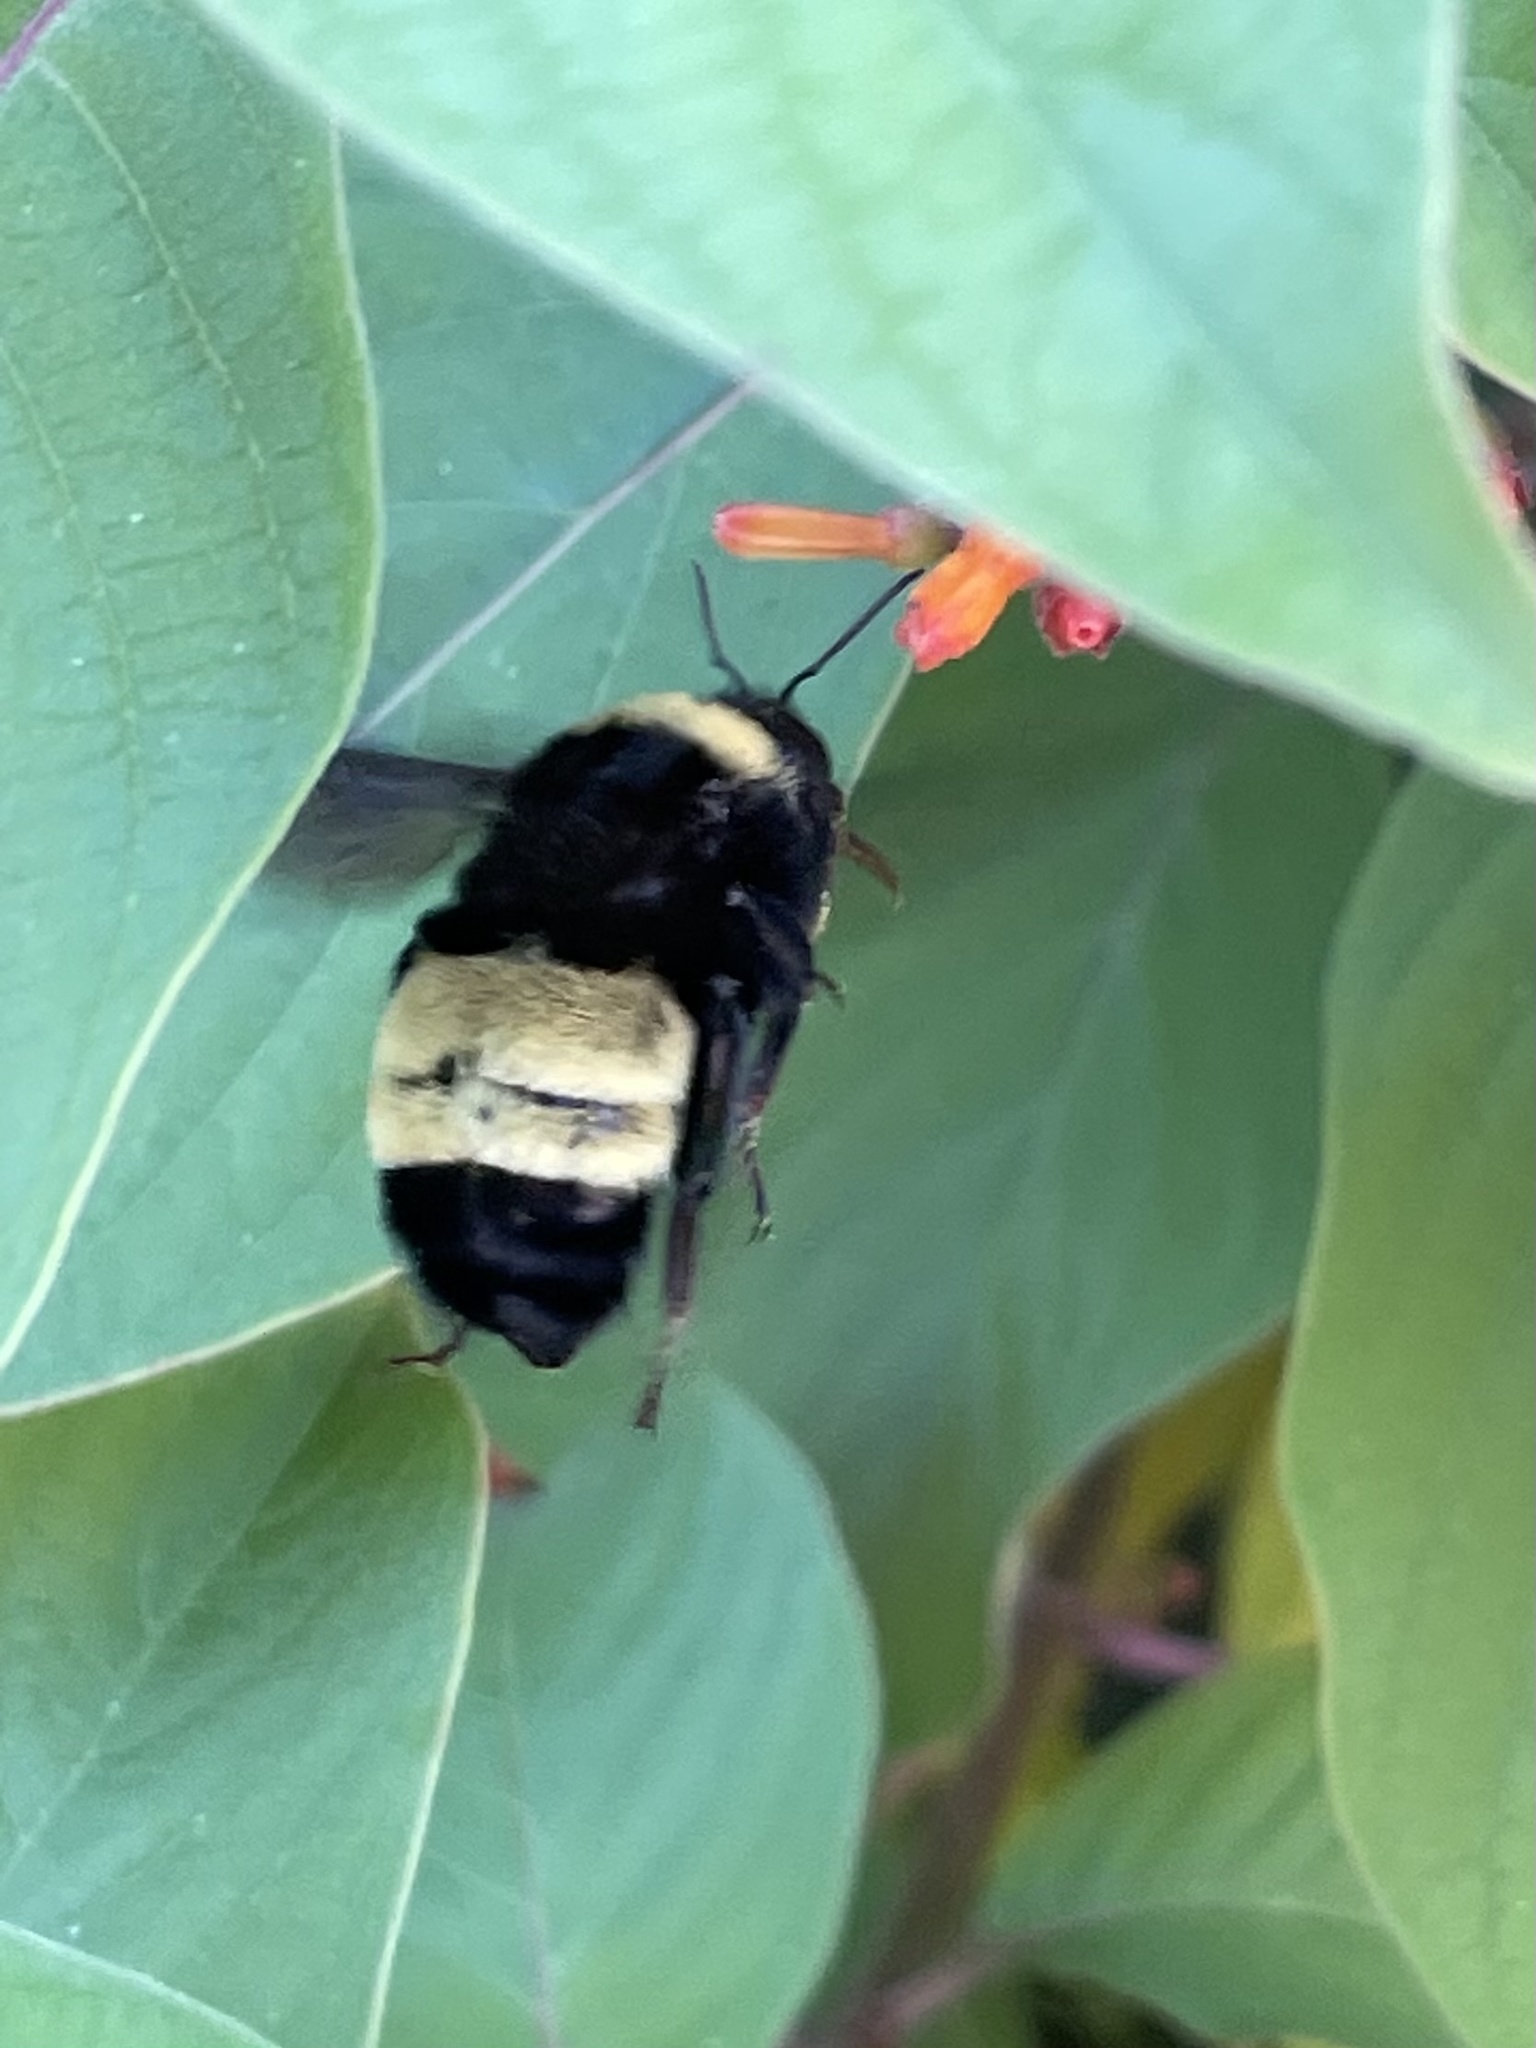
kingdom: Animalia
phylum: Arthropoda
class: Insecta
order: Hymenoptera
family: Apidae
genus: Bombus
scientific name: Bombus pensylvanicus
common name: Bumble bee
